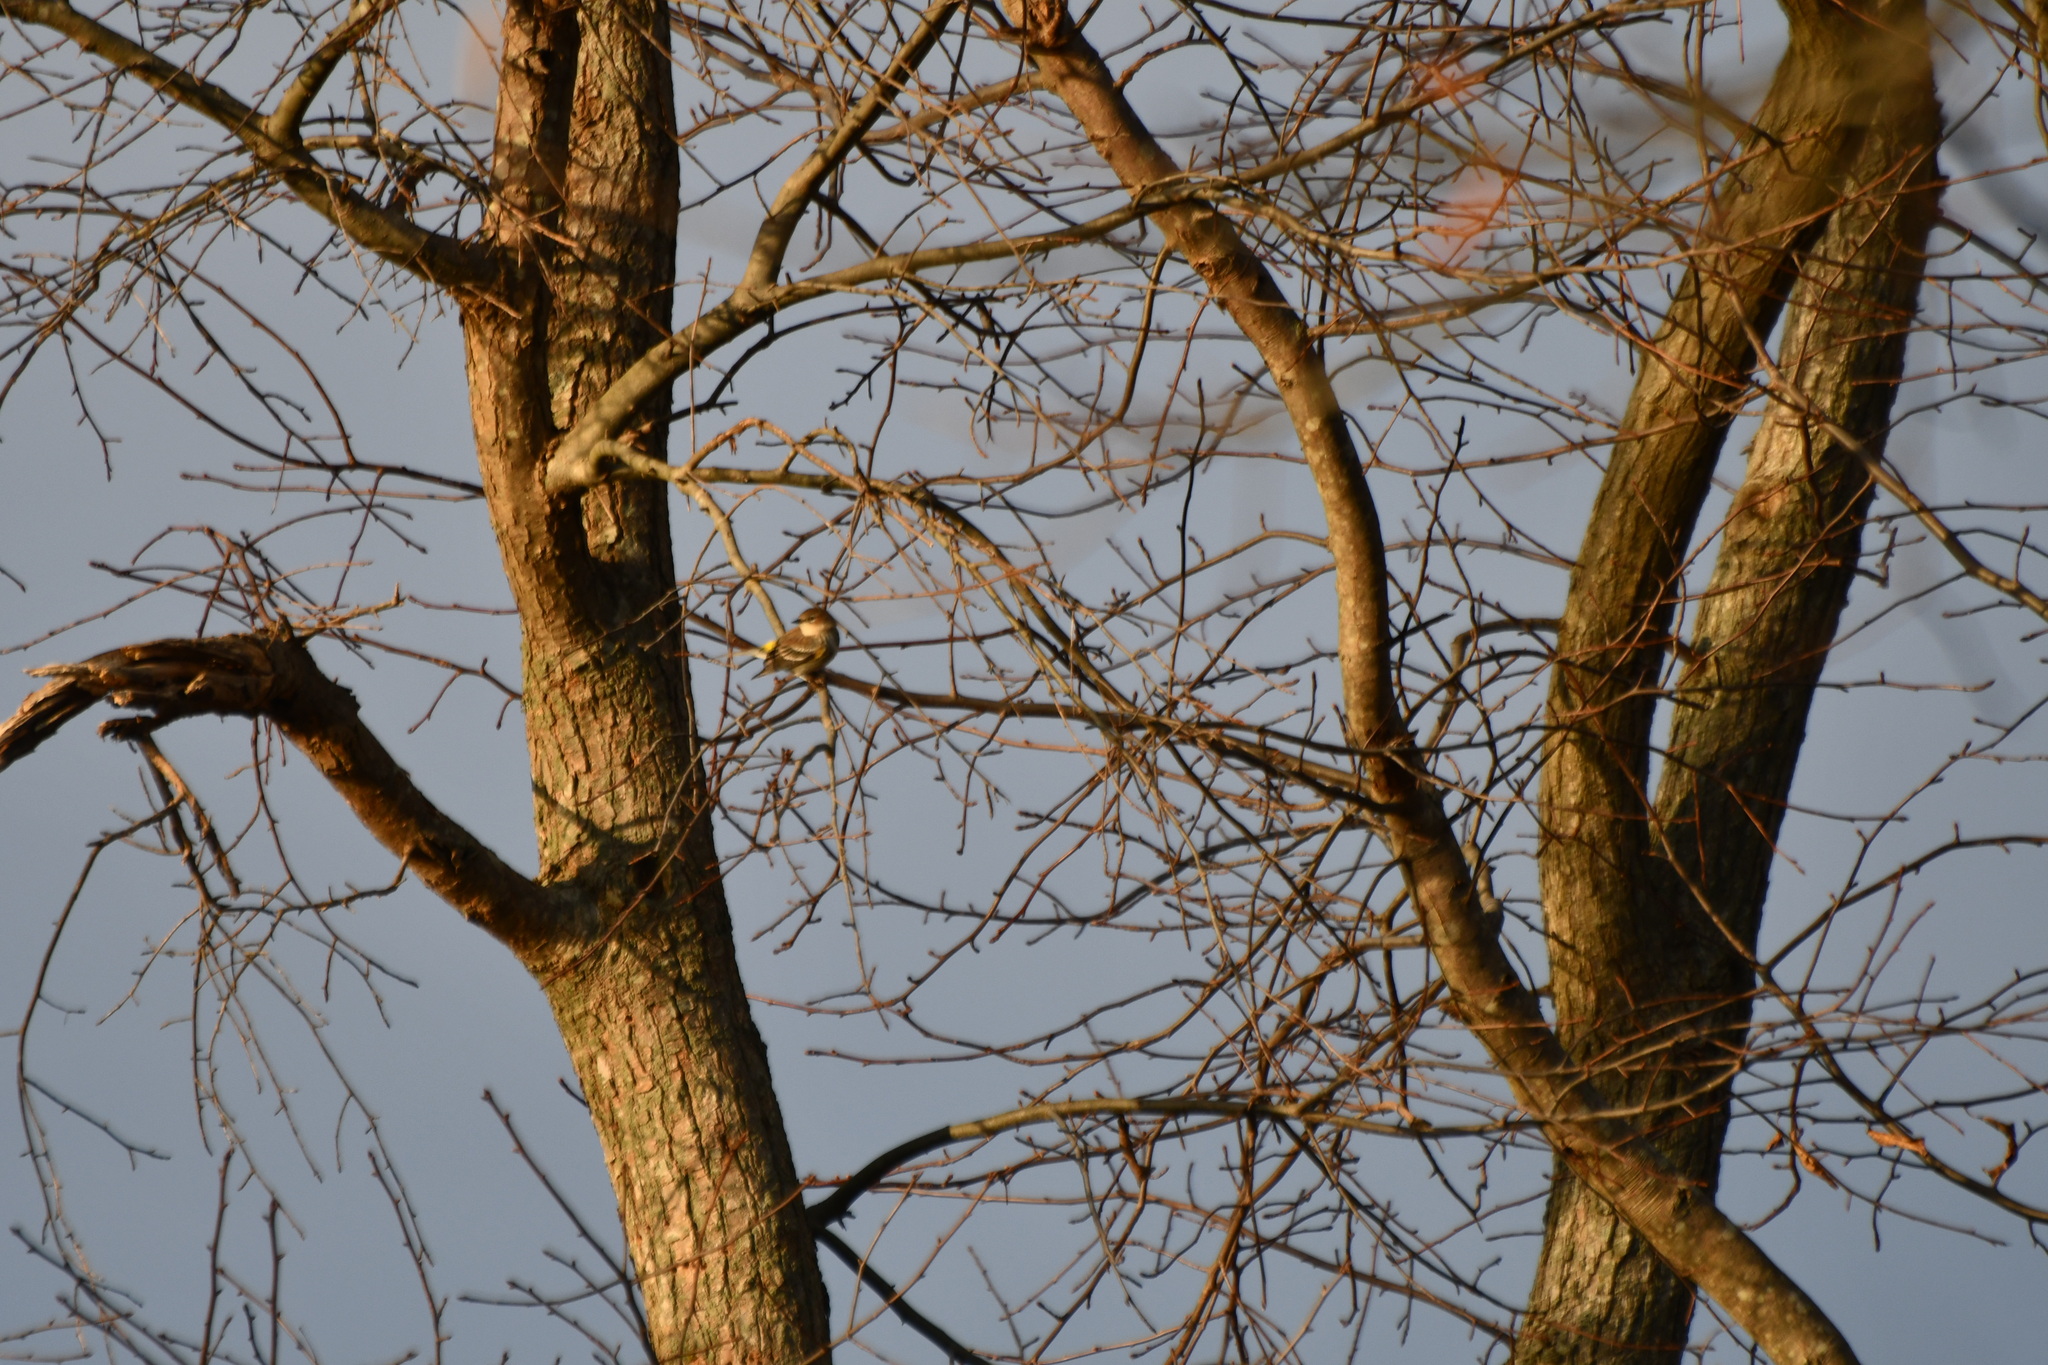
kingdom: Animalia
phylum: Chordata
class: Aves
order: Passeriformes
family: Parulidae
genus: Setophaga
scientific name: Setophaga coronata
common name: Myrtle warbler
